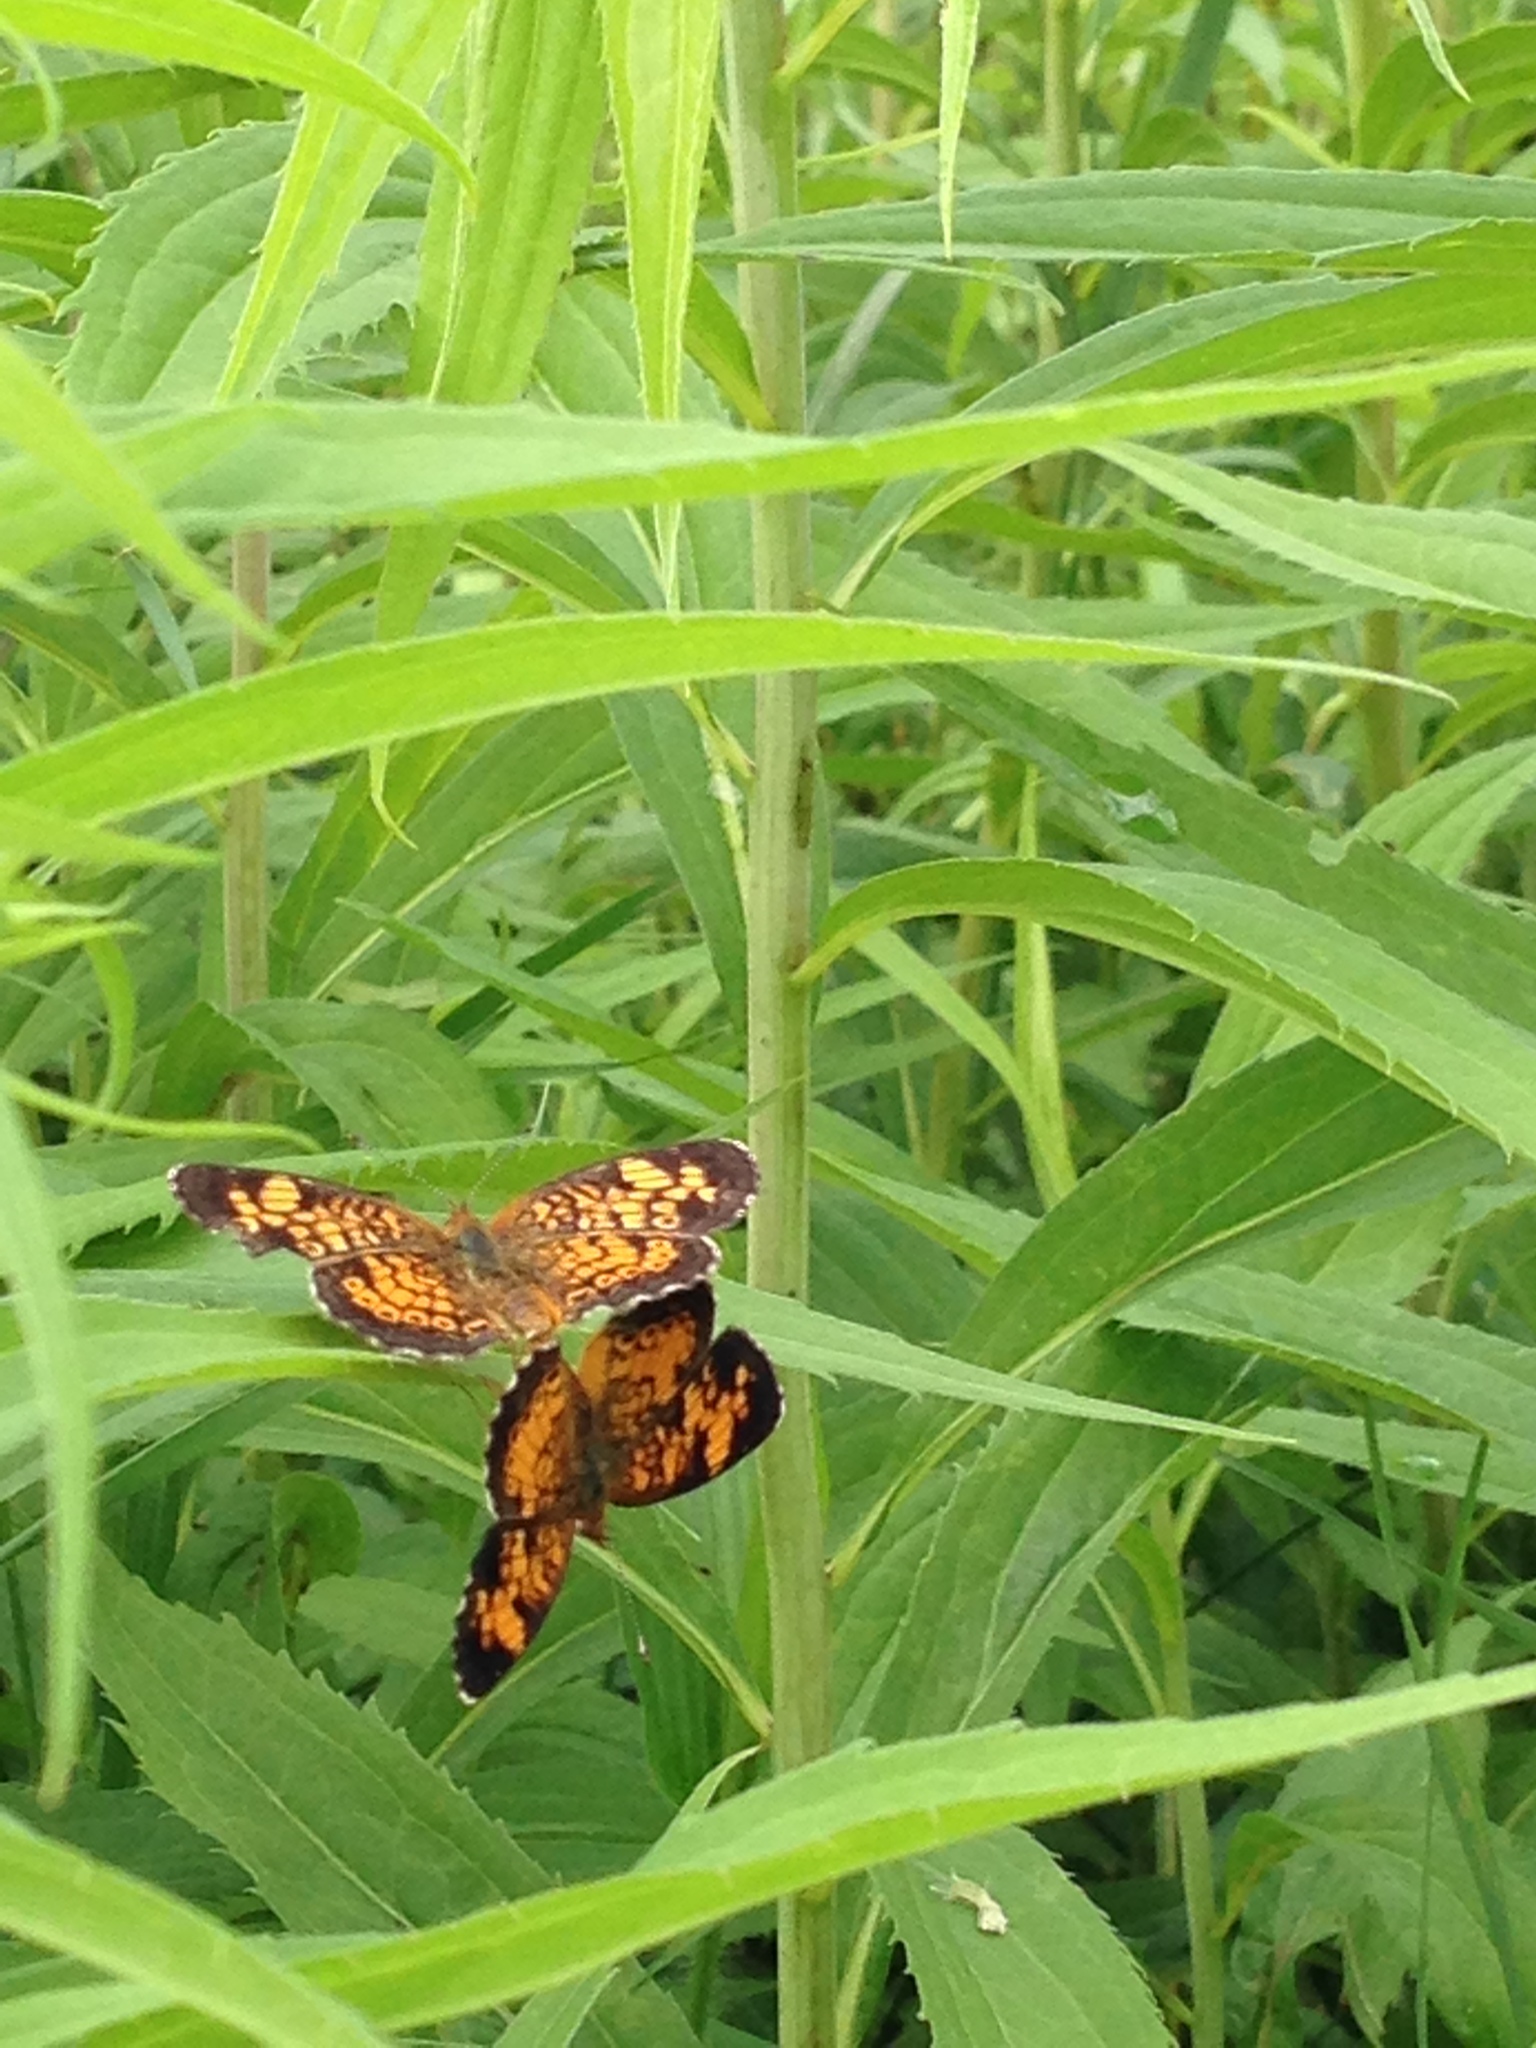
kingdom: Animalia
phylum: Arthropoda
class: Insecta
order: Lepidoptera
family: Nymphalidae
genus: Phyciodes
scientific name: Phyciodes tharos
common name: Pearl crescent
